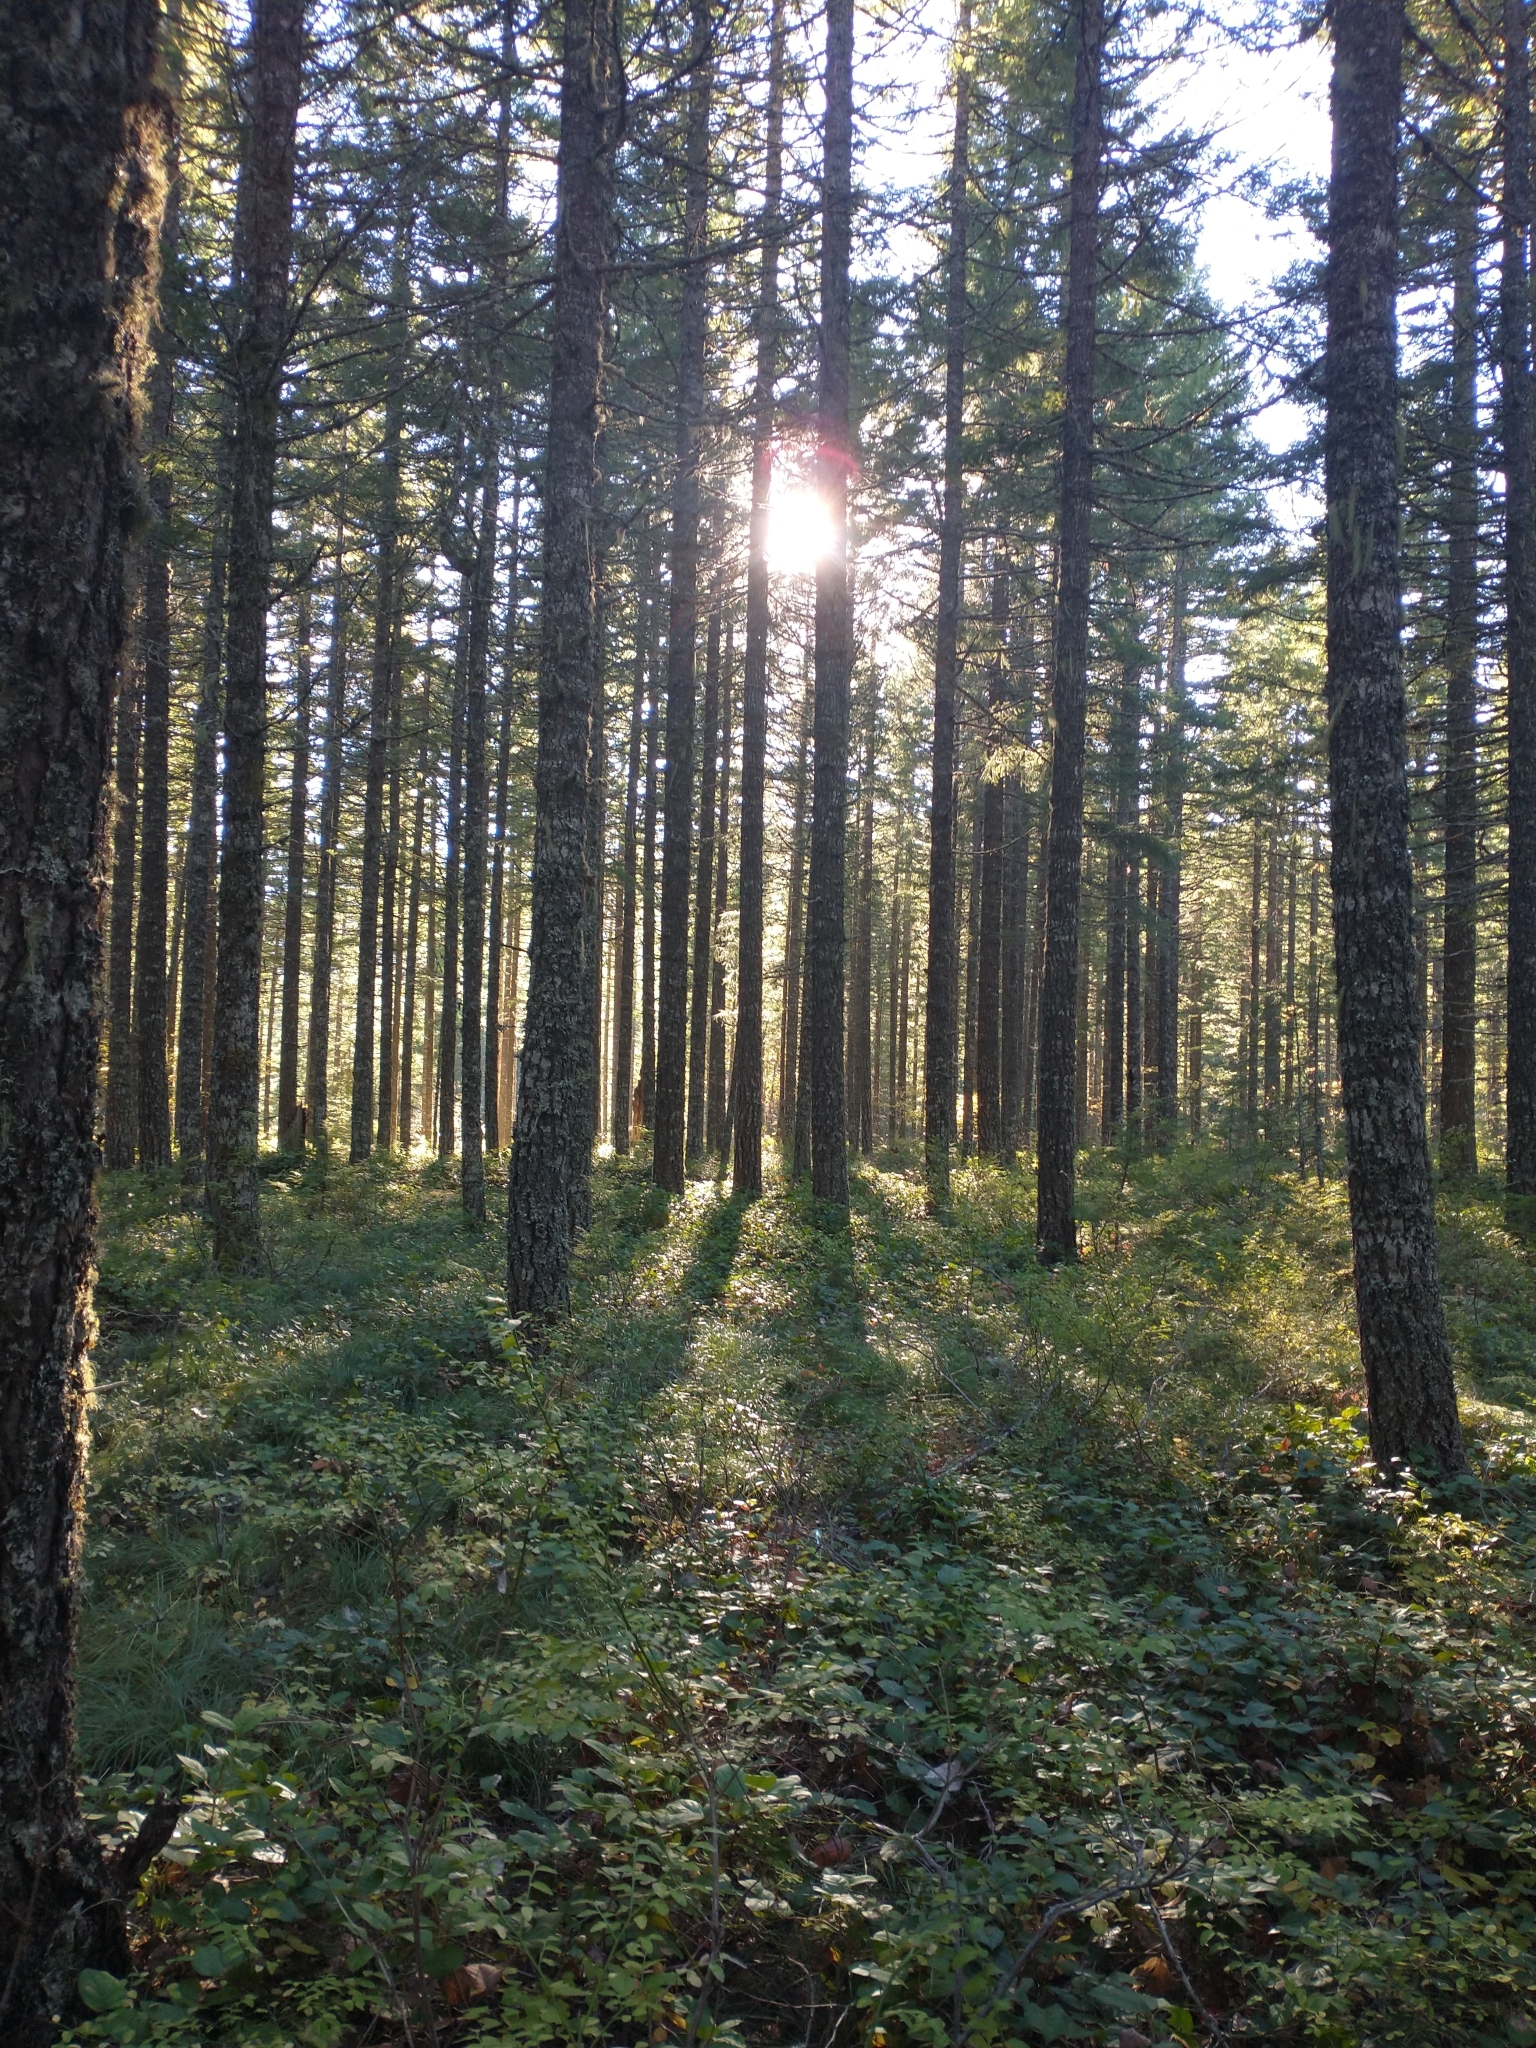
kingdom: Plantae
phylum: Tracheophyta
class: Pinopsida
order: Pinales
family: Pinaceae
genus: Pseudotsuga
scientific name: Pseudotsuga menziesii
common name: Douglas fir
